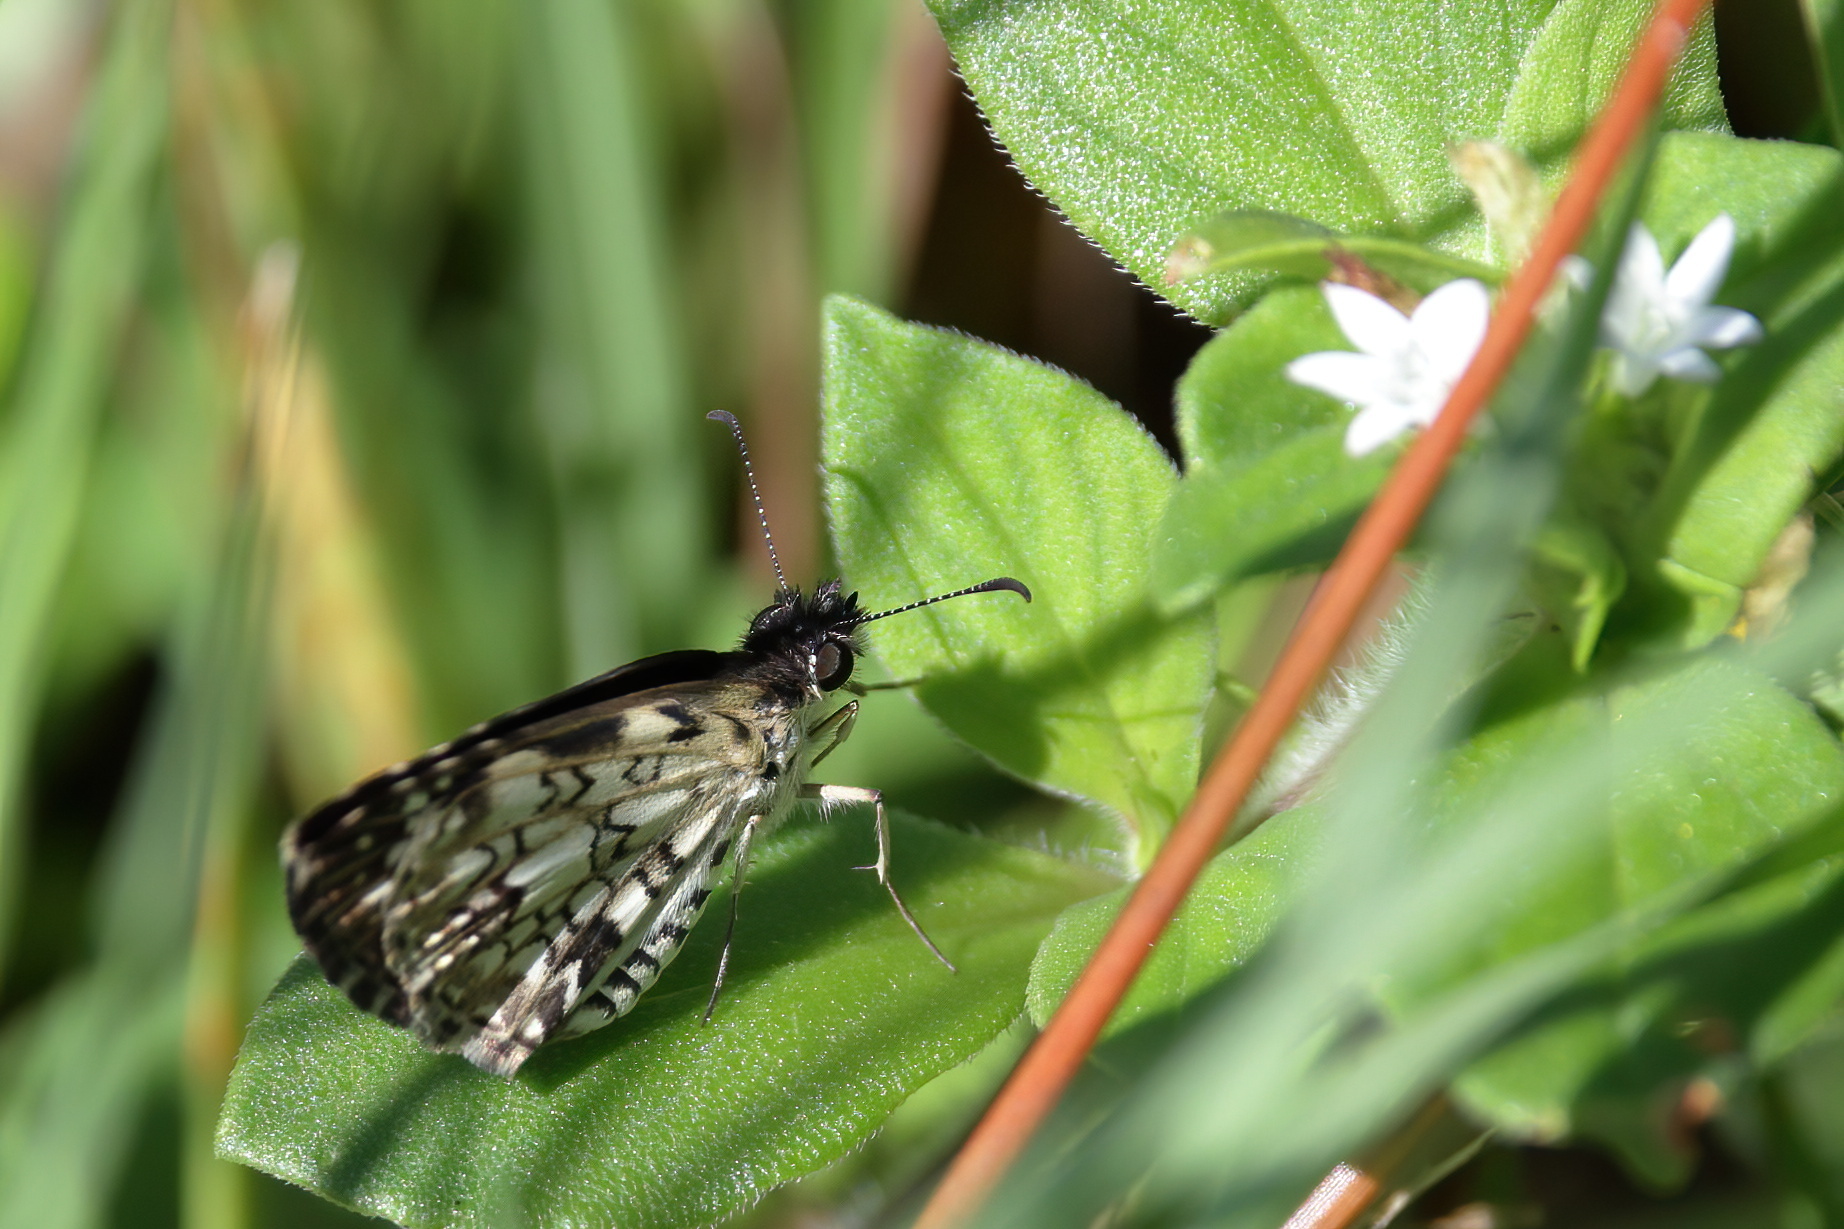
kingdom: Animalia
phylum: Arthropoda
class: Insecta
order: Lepidoptera
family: Hesperiidae
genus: Pyrgus
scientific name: Pyrgus oileus
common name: Tropical checkered-skipper
